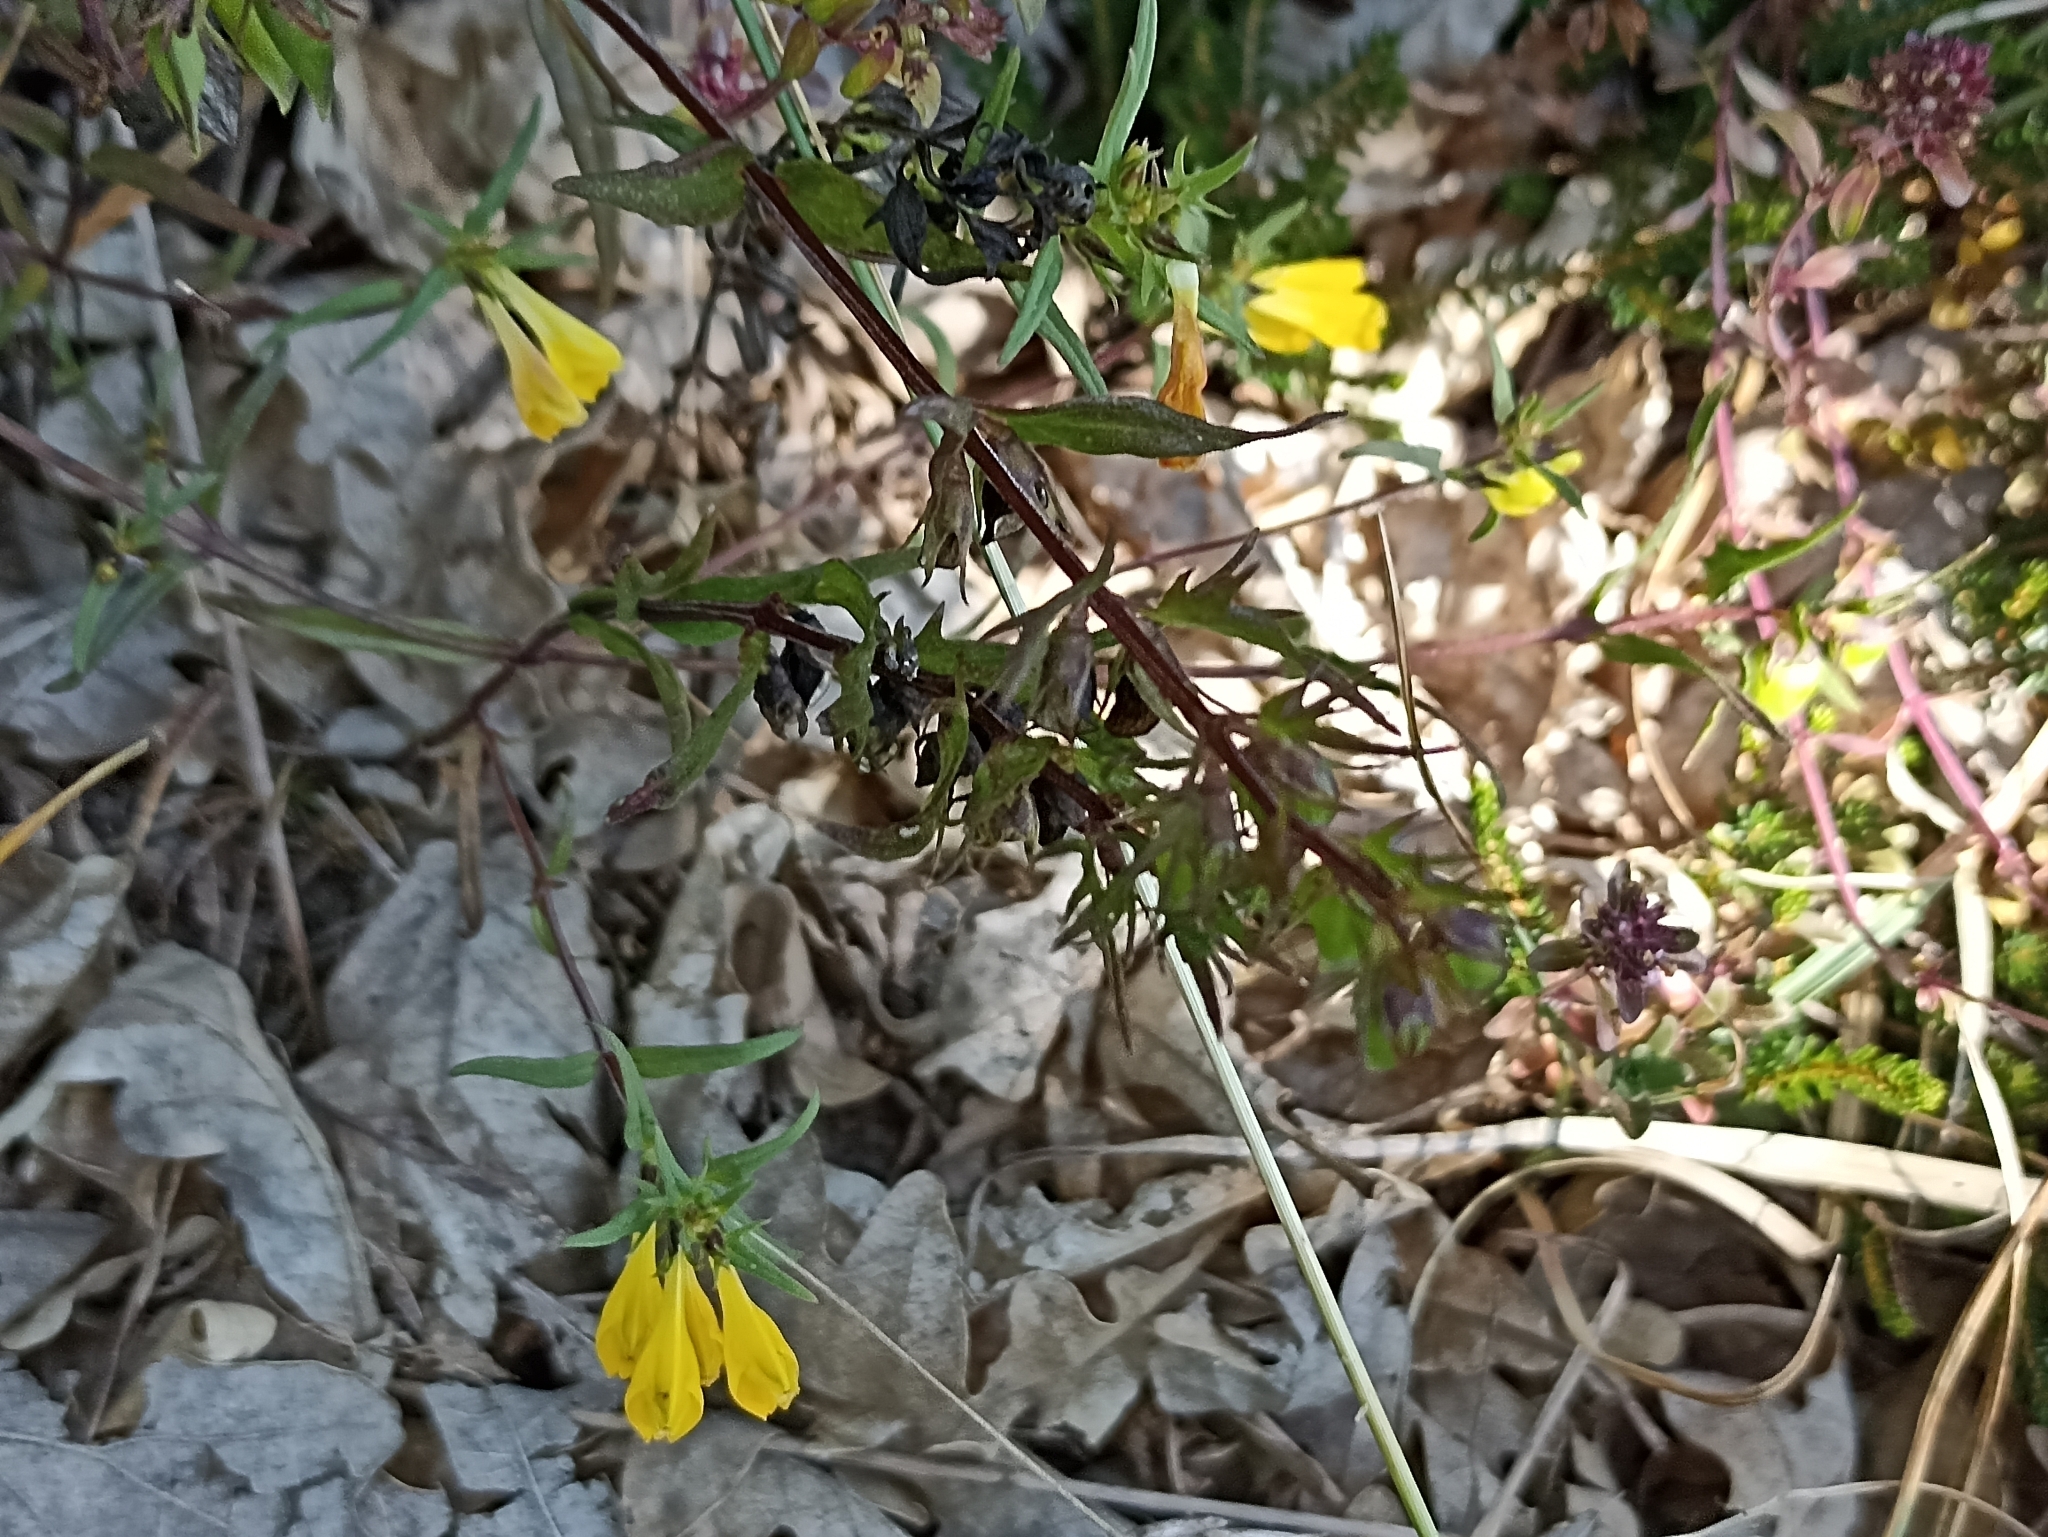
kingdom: Plantae
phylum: Tracheophyta
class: Magnoliopsida
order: Lamiales
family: Orobanchaceae
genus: Melampyrum
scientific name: Melampyrum pratense
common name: Common cow-wheat
